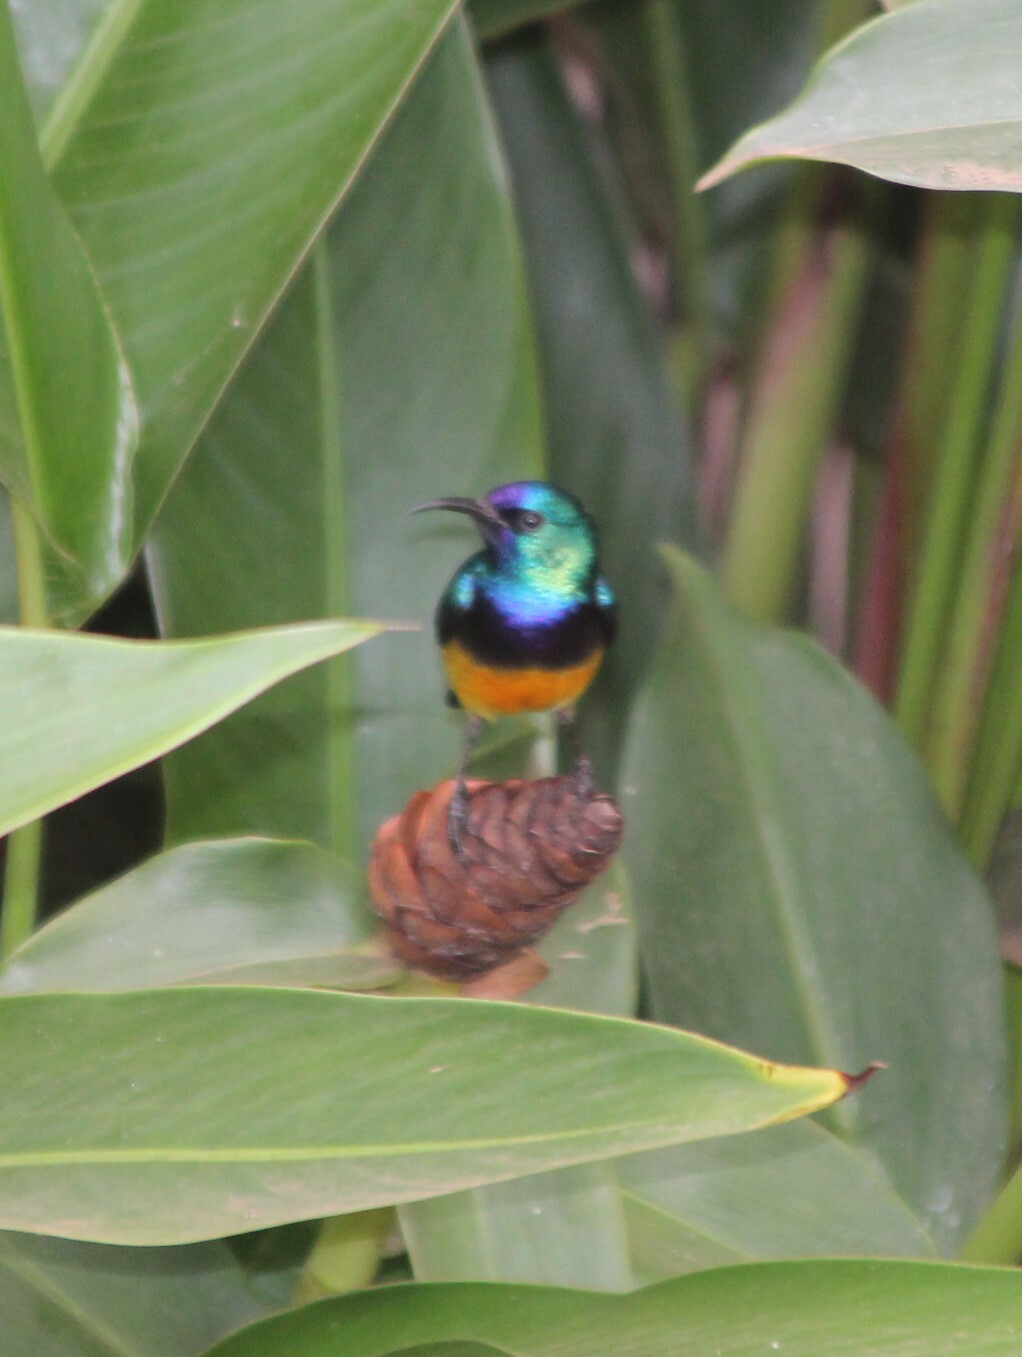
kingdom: Animalia
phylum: Chordata
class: Aves
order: Passeriformes
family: Nectariniidae
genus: Cinnyris
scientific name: Cinnyris venustus
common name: Variable sunbird
